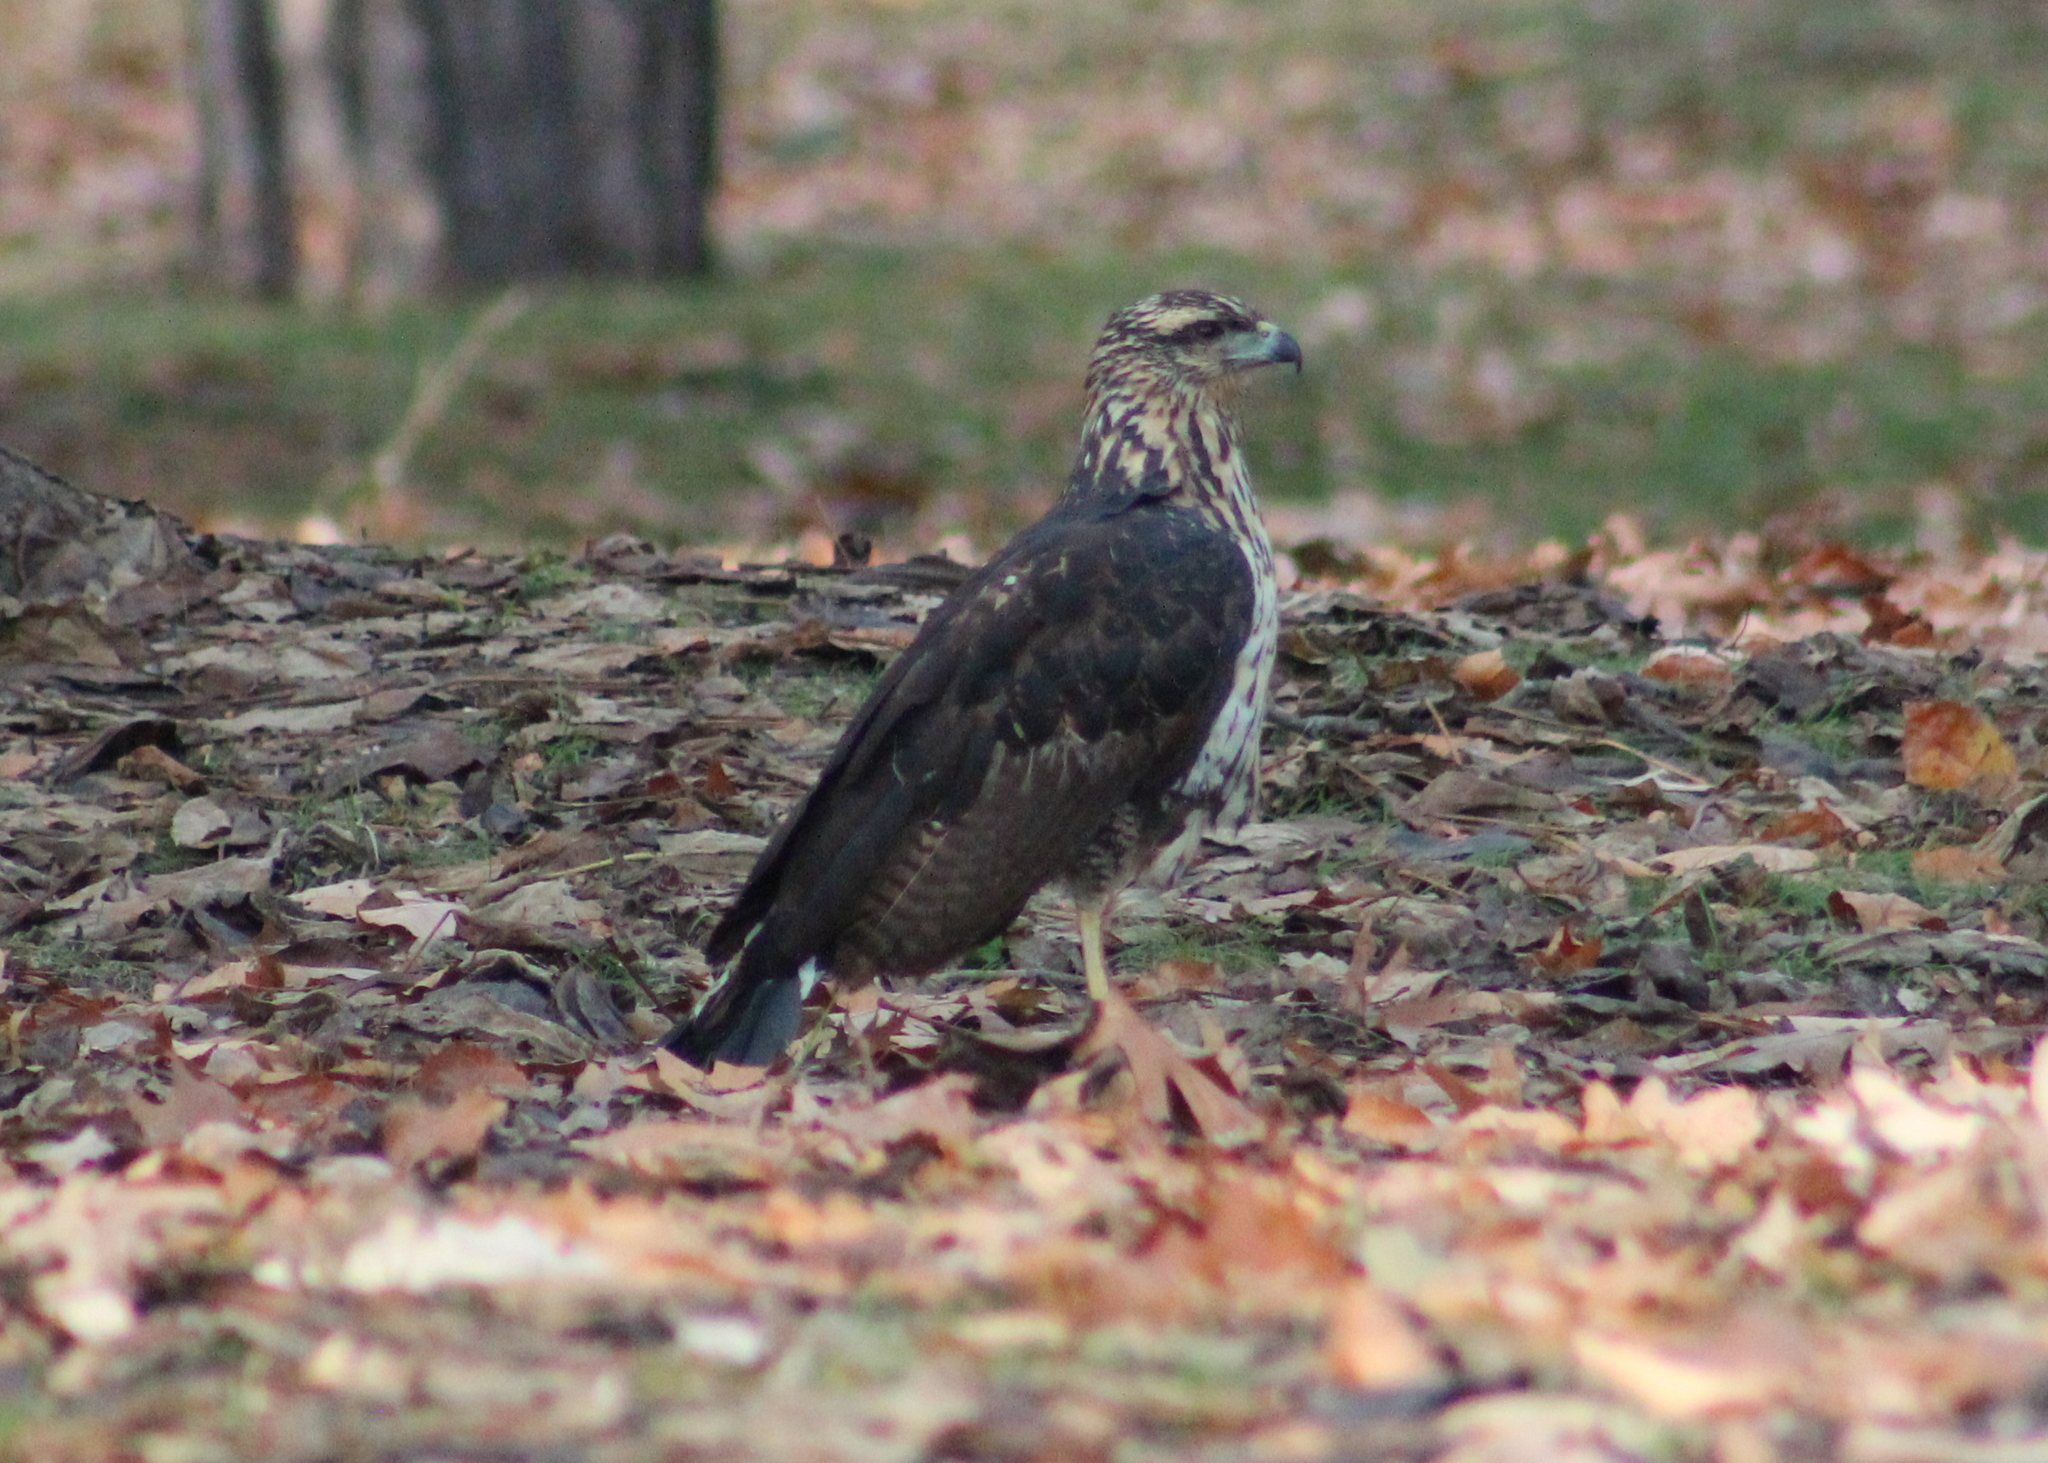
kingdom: Animalia
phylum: Chordata
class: Aves
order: Accipitriformes
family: Accipitridae
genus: Buteogallus
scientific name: Buteogallus urubitinga
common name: Great black hawk
